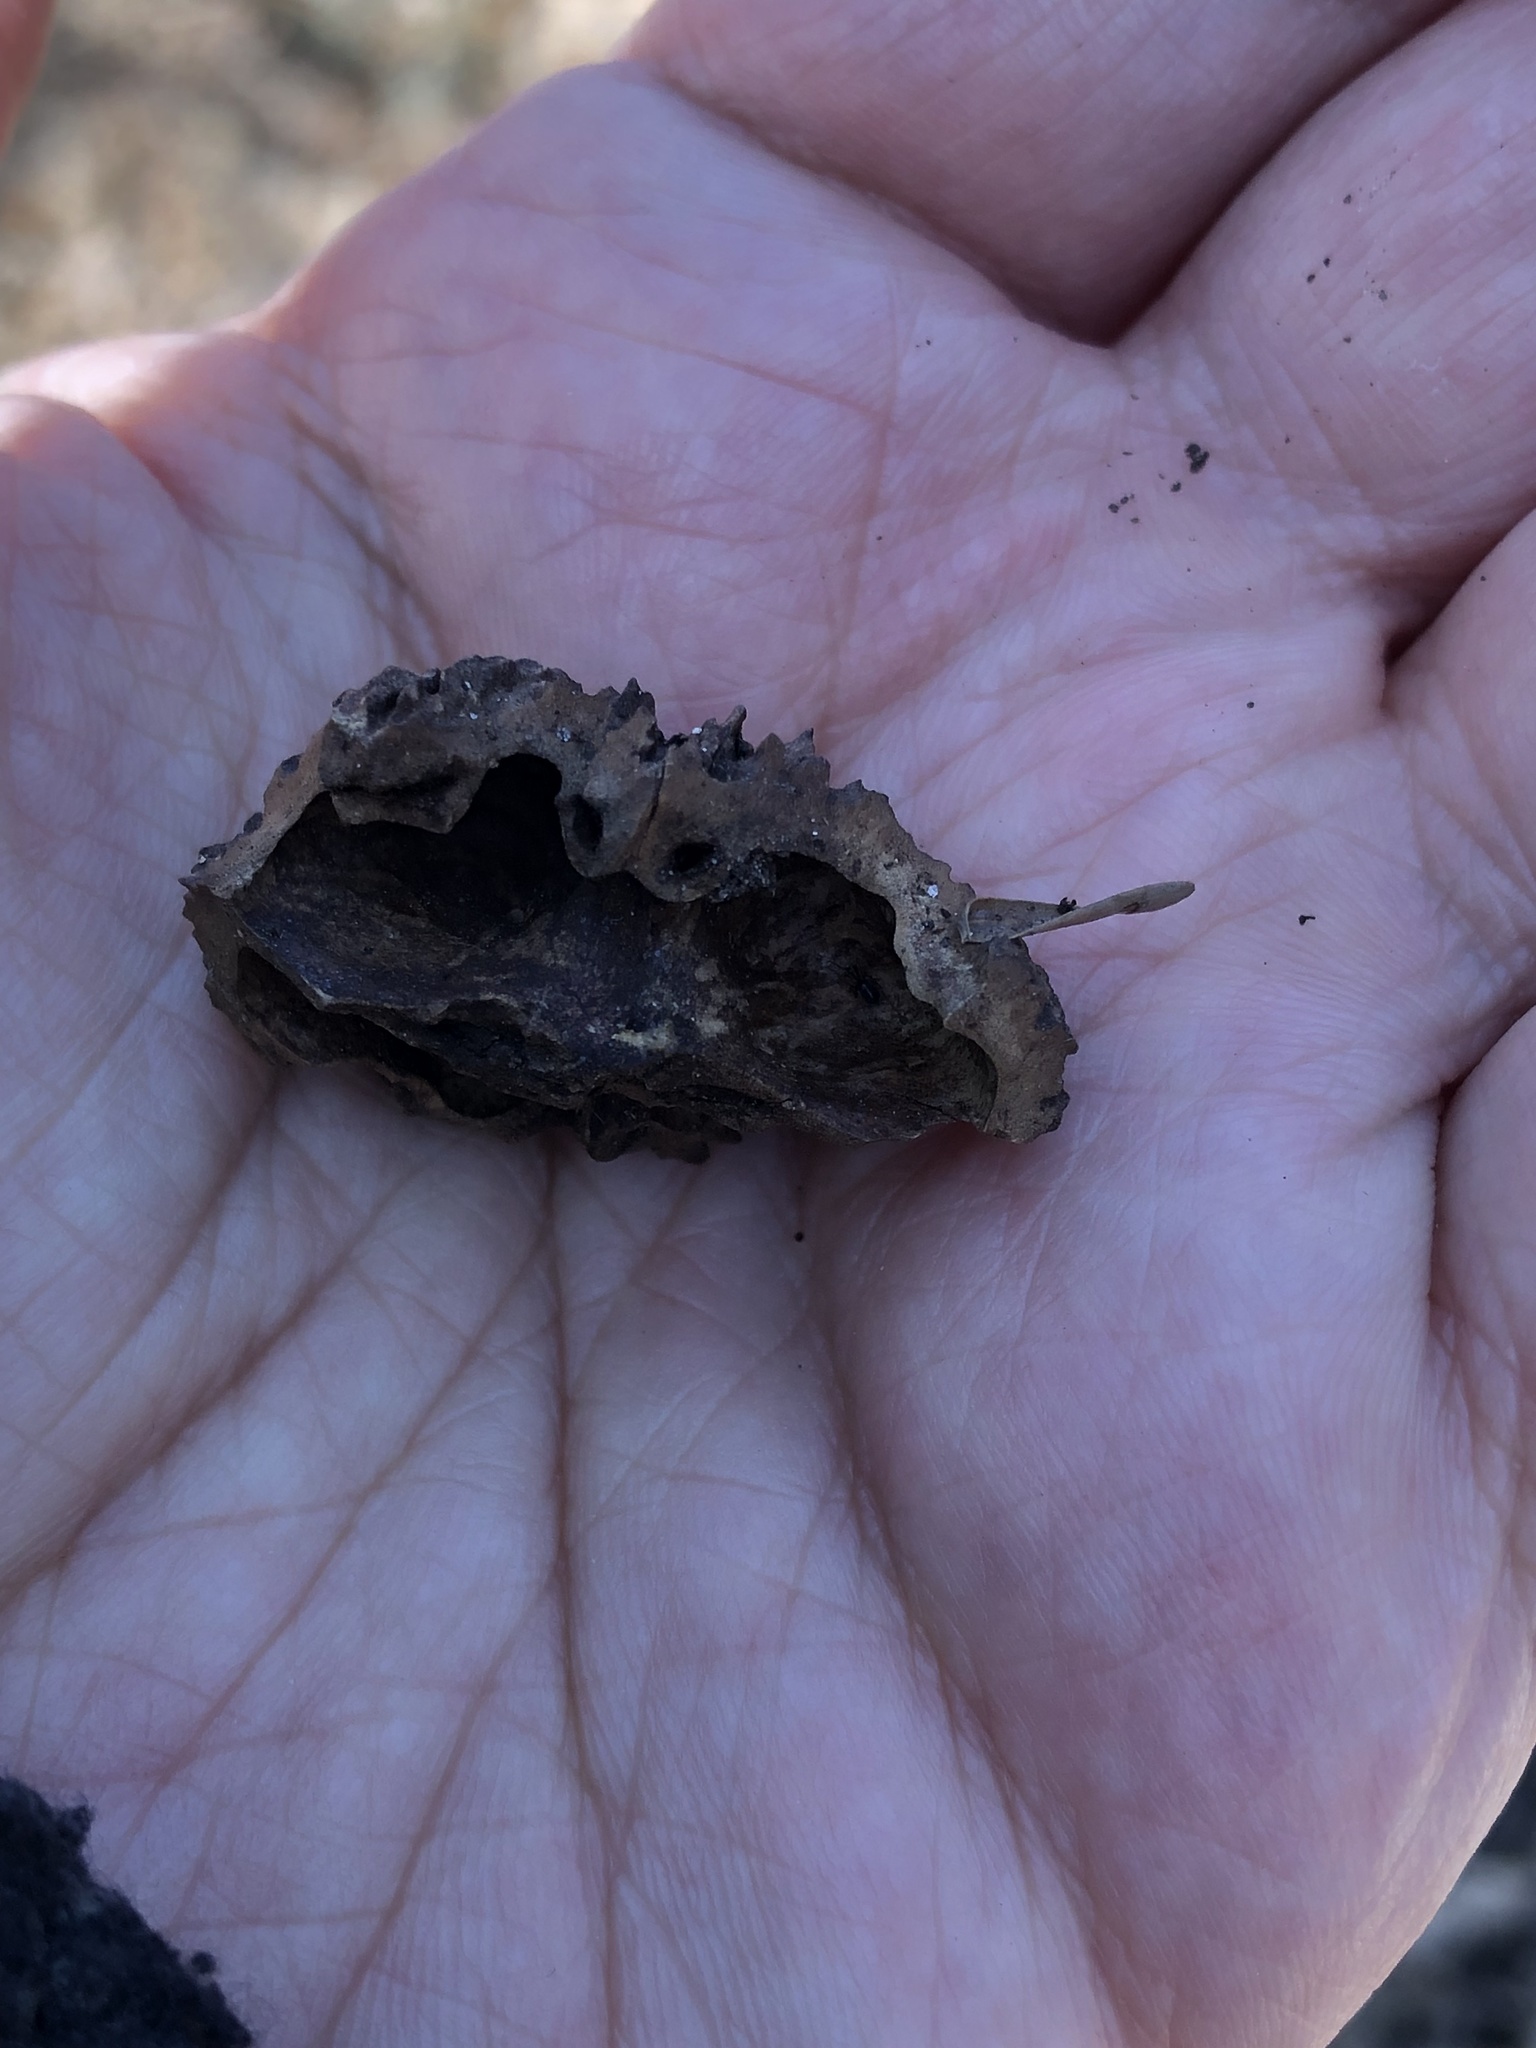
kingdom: Plantae
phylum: Tracheophyta
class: Magnoliopsida
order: Fagales
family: Juglandaceae
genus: Juglans
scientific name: Juglans nigra
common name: Black walnut
